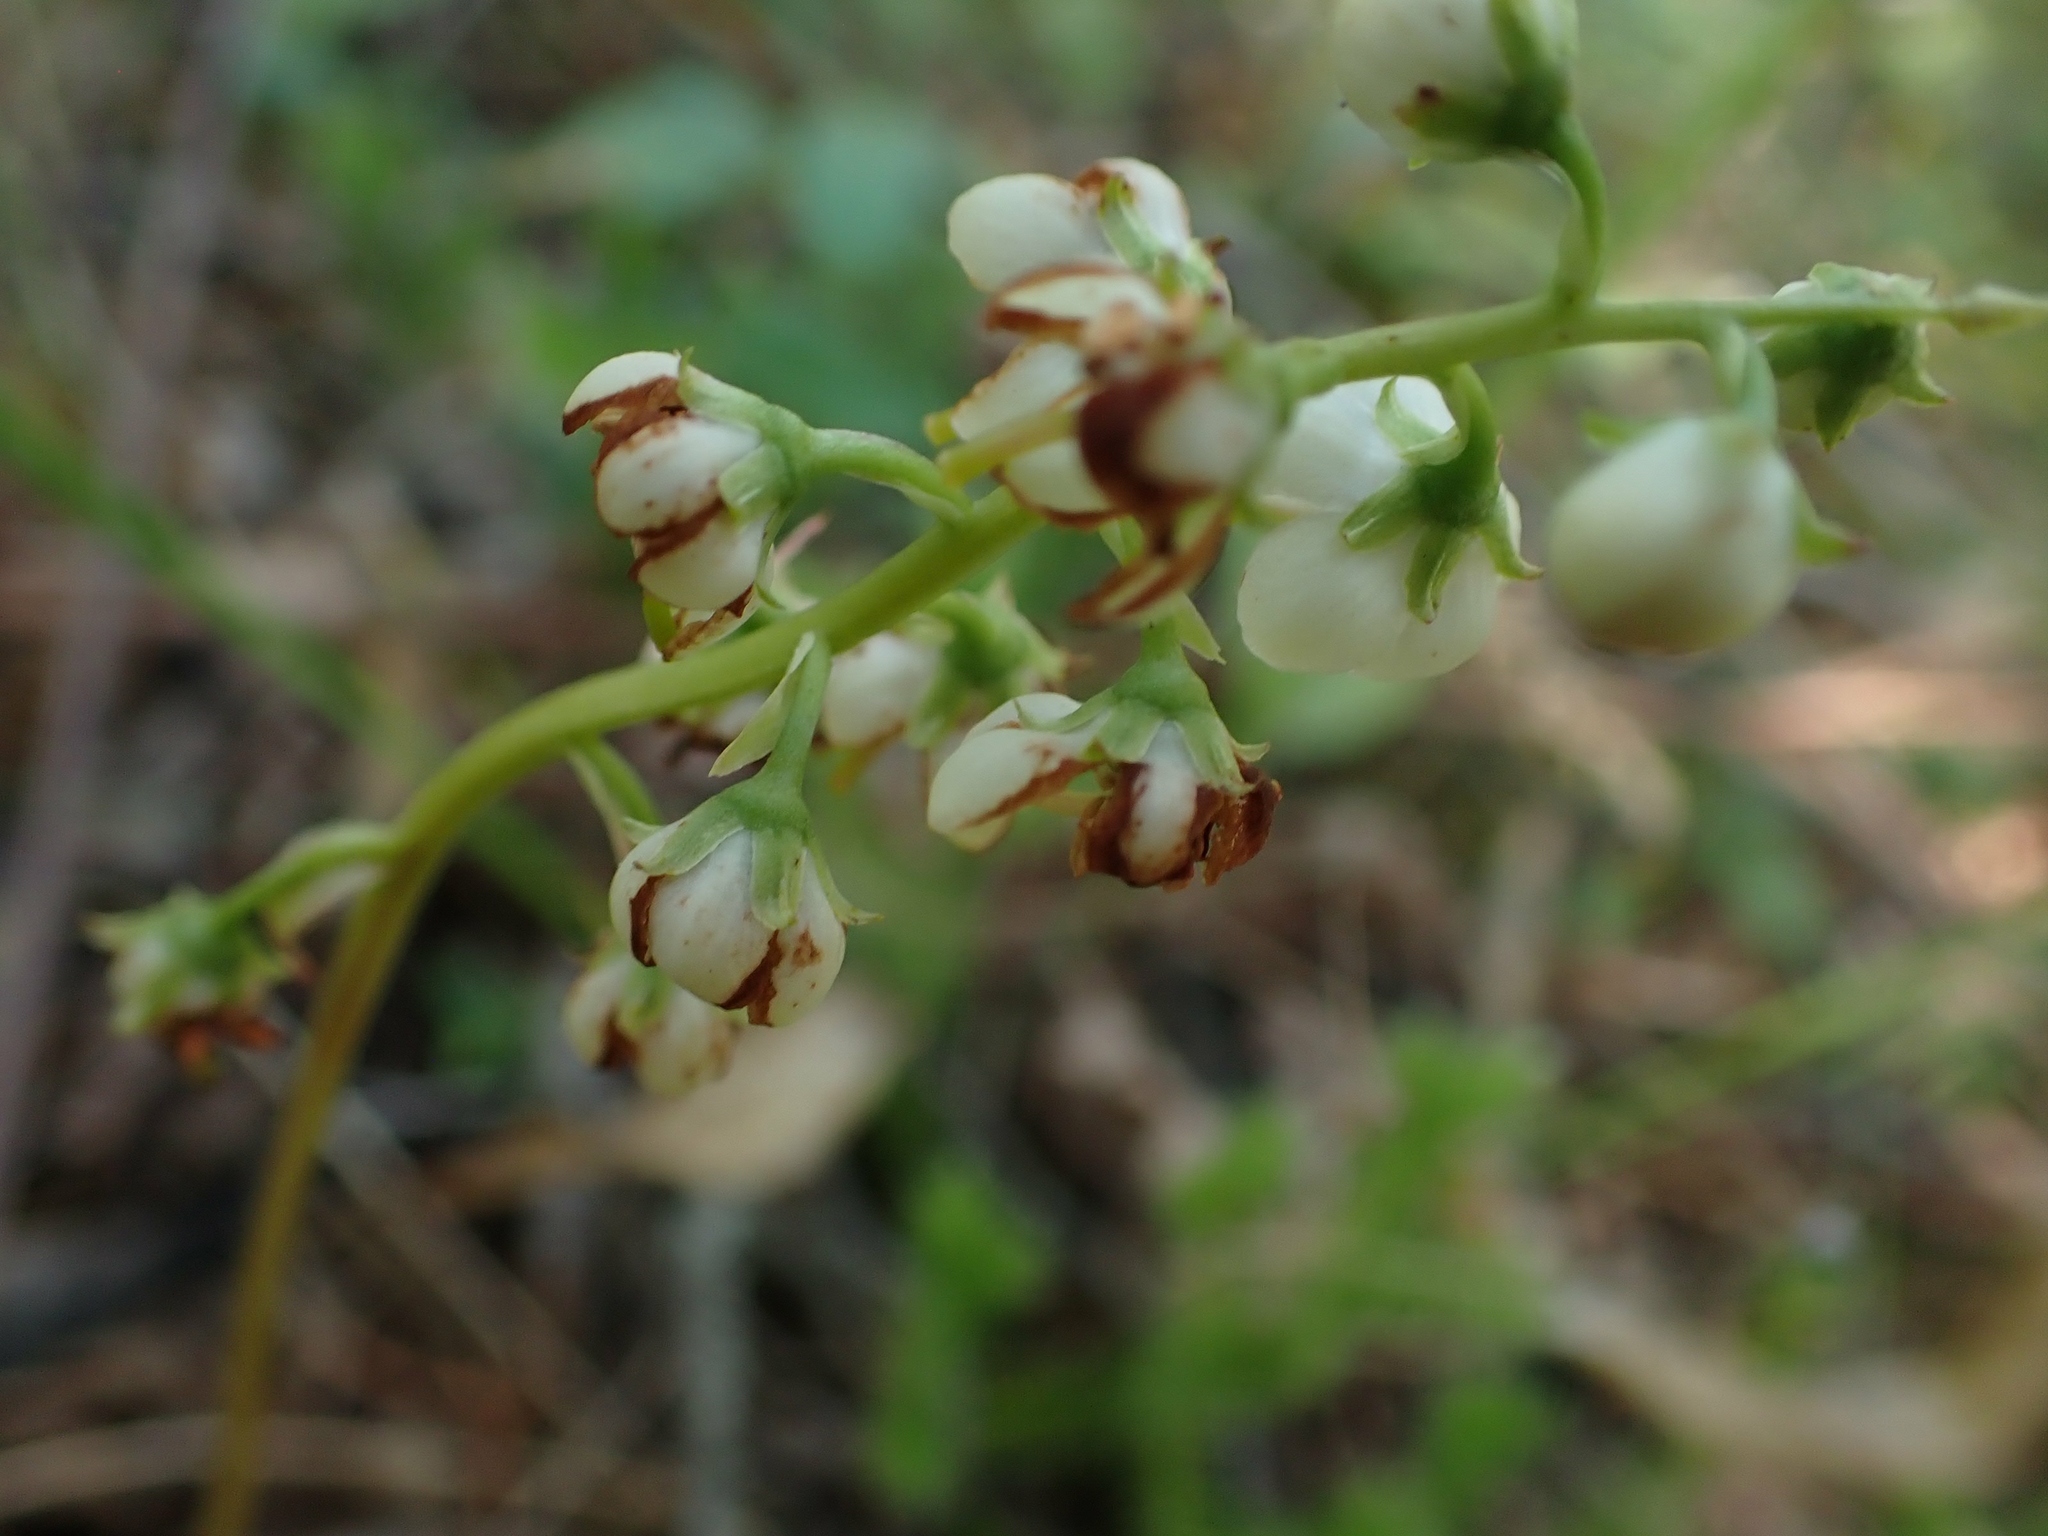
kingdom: Plantae
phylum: Tracheophyta
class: Magnoliopsida
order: Ericales
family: Ericaceae
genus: Pyrola
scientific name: Pyrola chlorantha
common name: Green wintergreen
